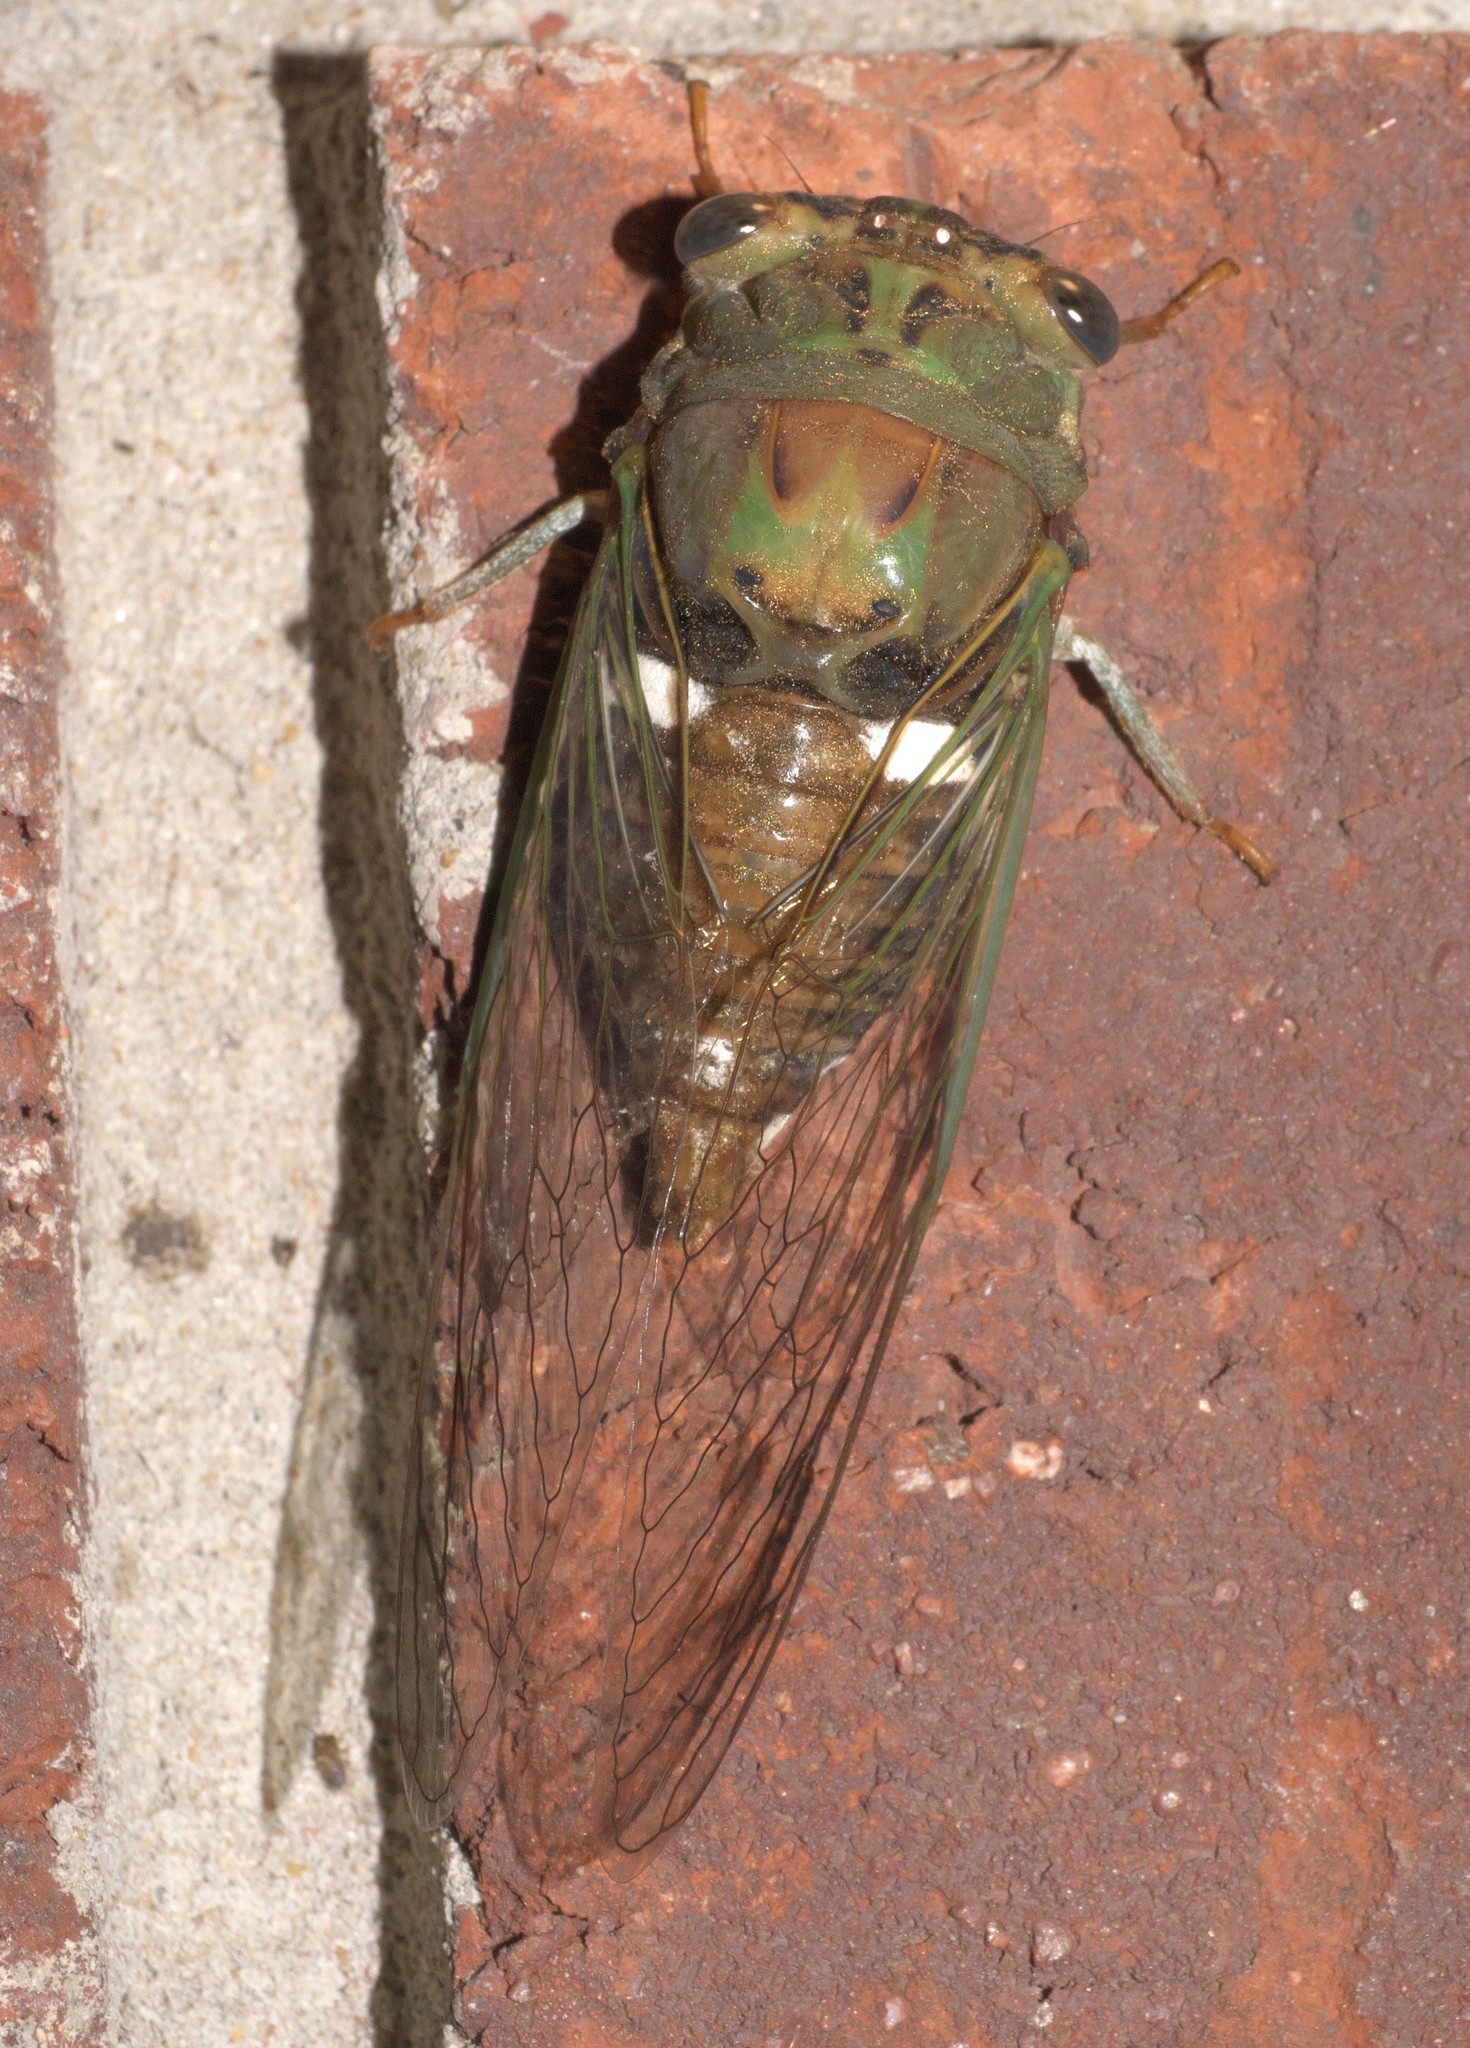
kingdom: Animalia
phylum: Arthropoda
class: Insecta
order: Hemiptera
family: Cicadidae
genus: Neotibicen
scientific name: Neotibicen pruinosus
